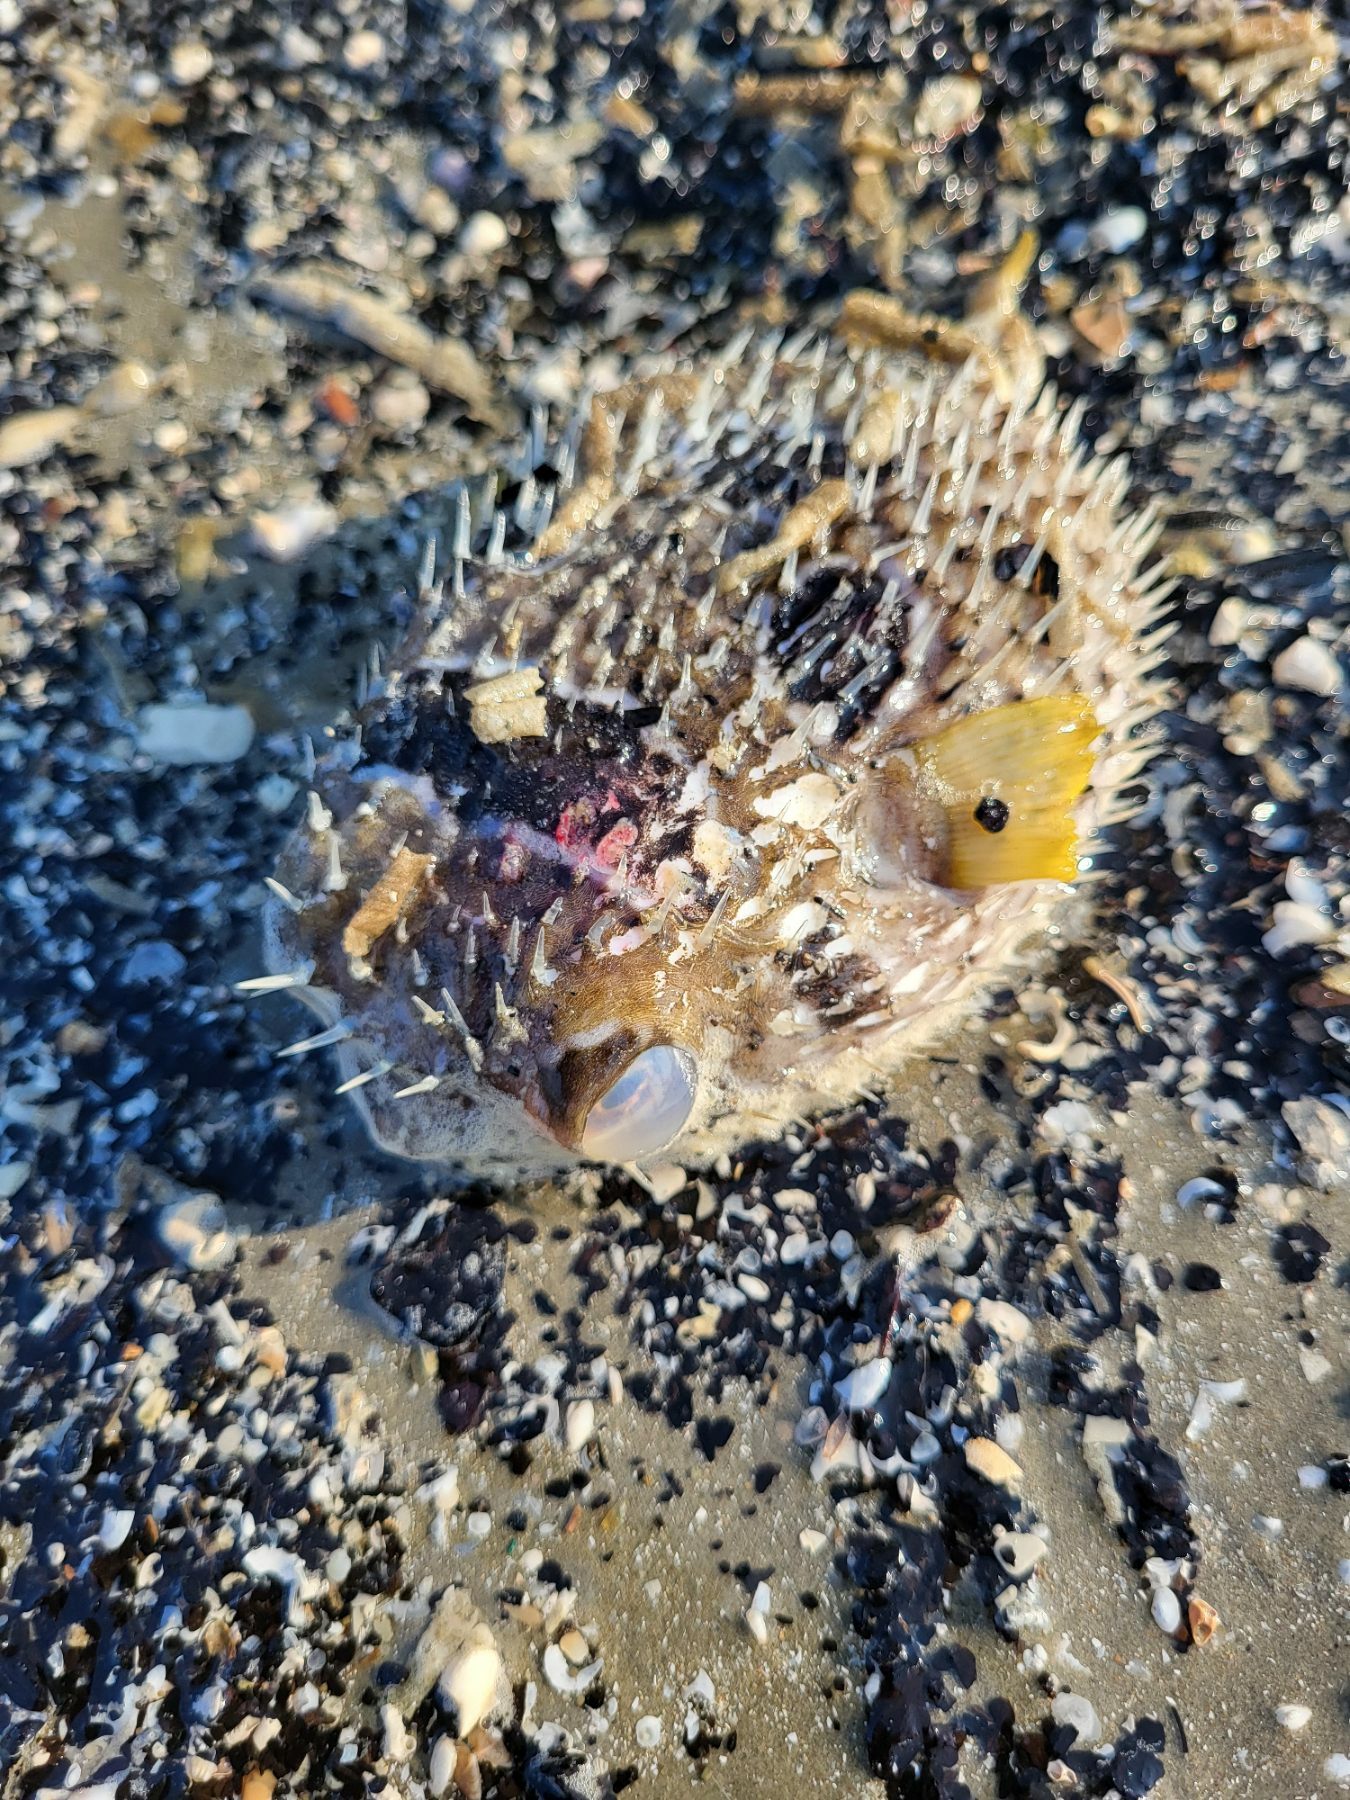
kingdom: Animalia
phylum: Chordata
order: Tetraodontiformes
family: Diodontidae
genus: Diodon
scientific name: Diodon liturosus
